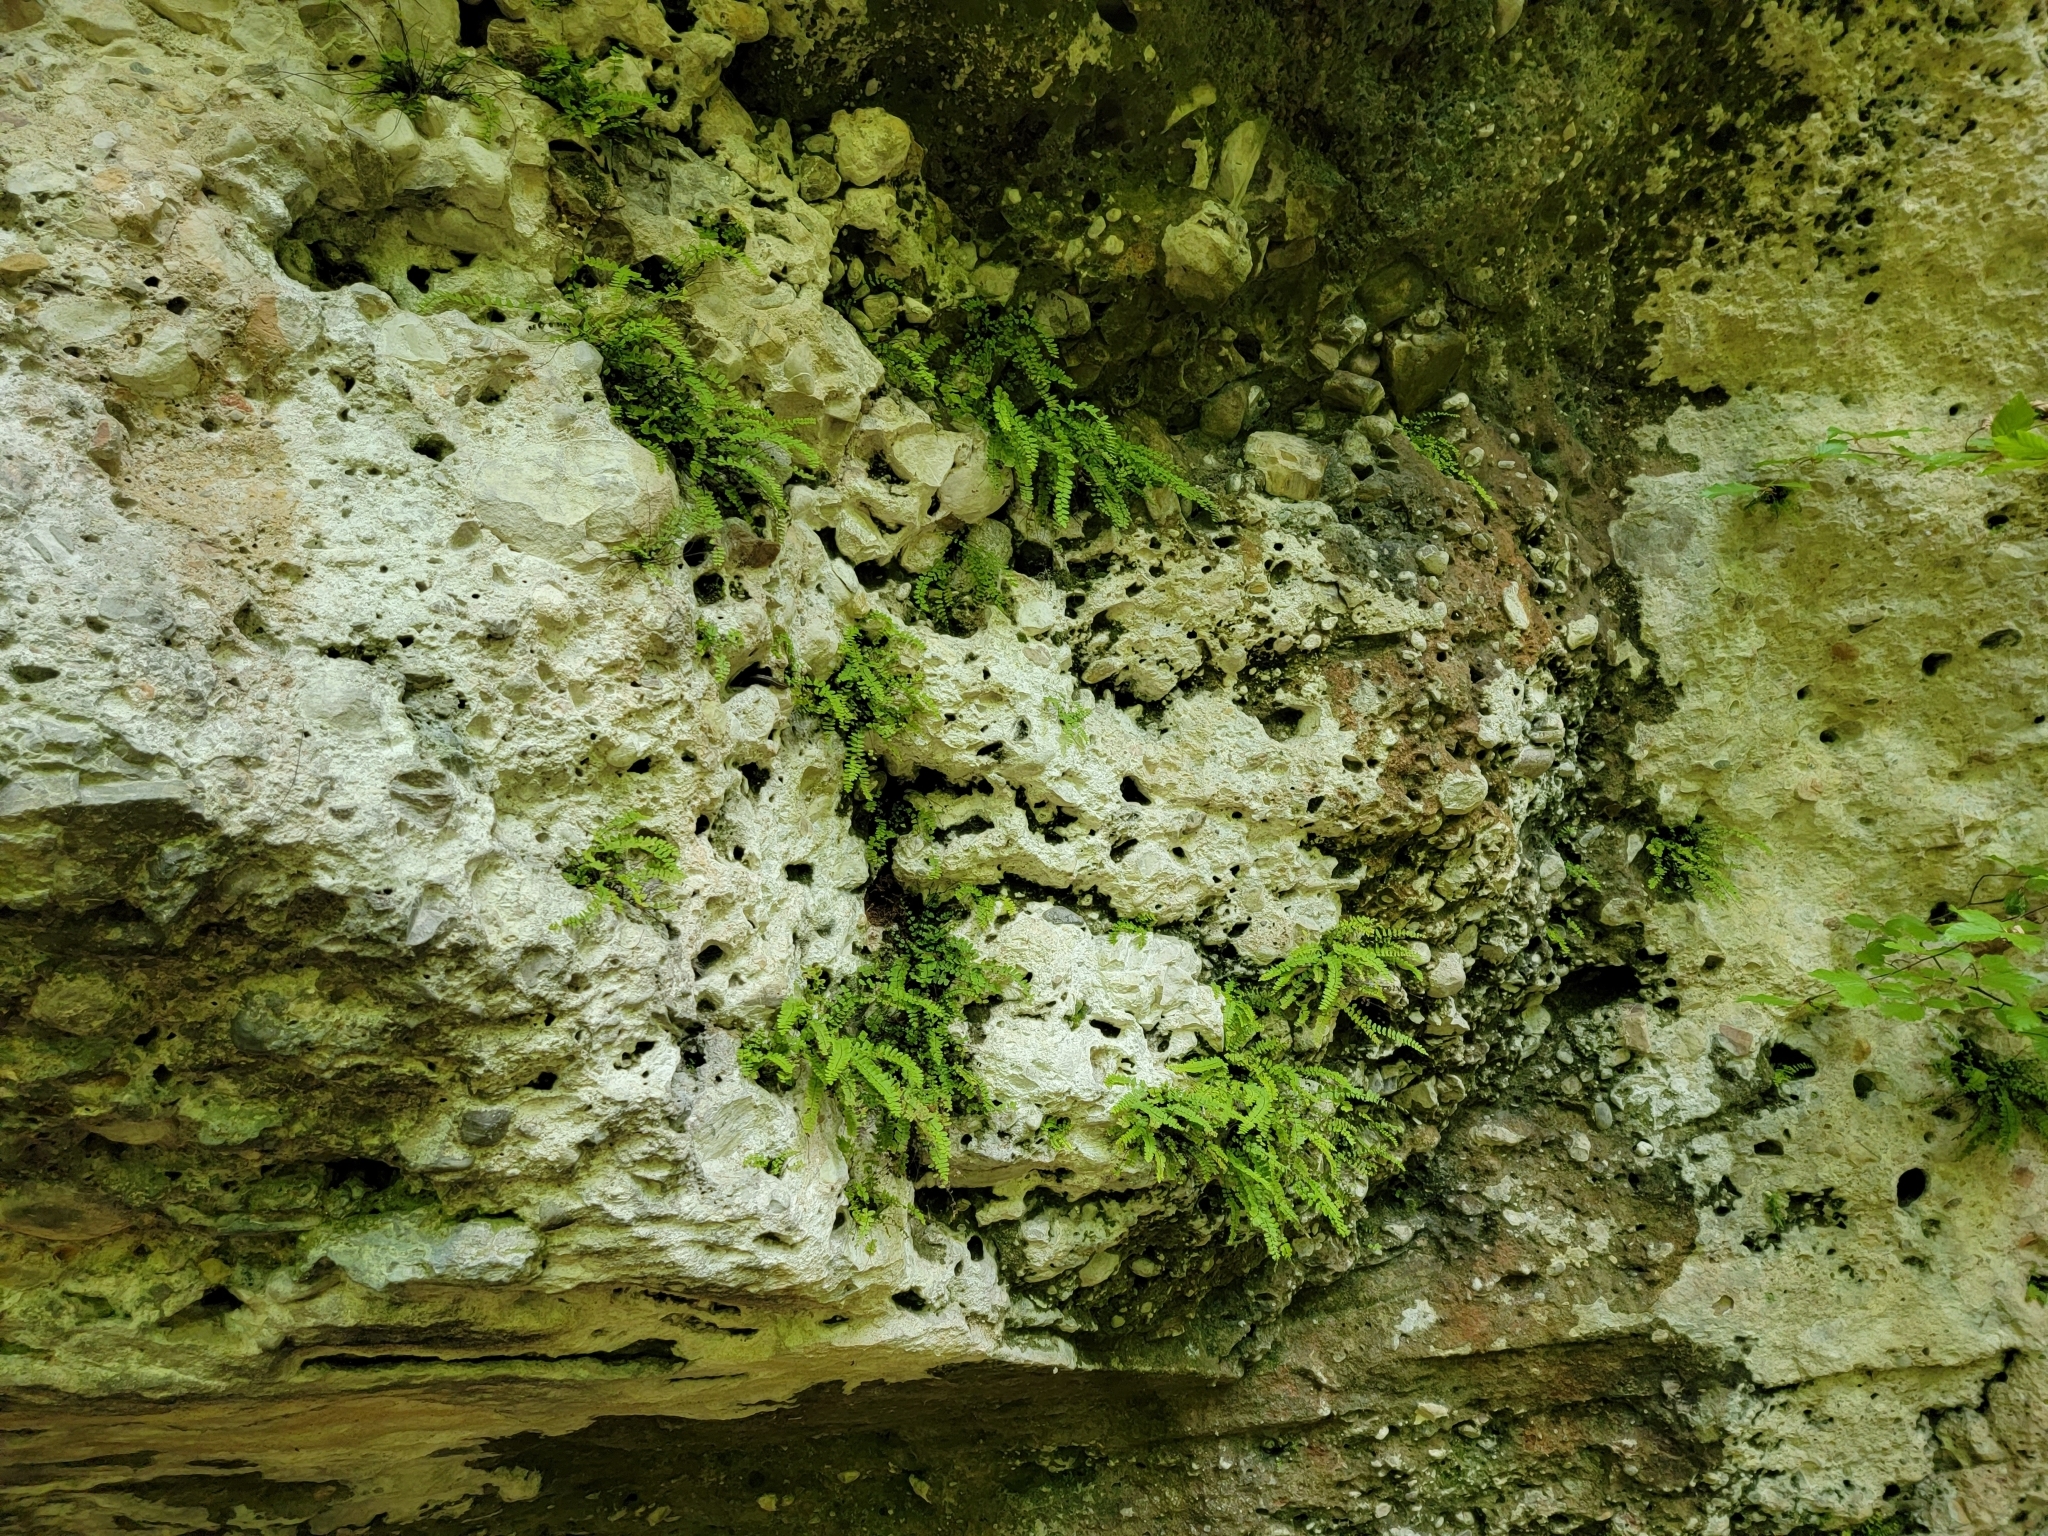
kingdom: Plantae
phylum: Tracheophyta
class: Polypodiopsida
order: Polypodiales
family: Aspleniaceae
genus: Asplenium
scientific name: Asplenium trichomanes
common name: Maidenhair spleenwort
